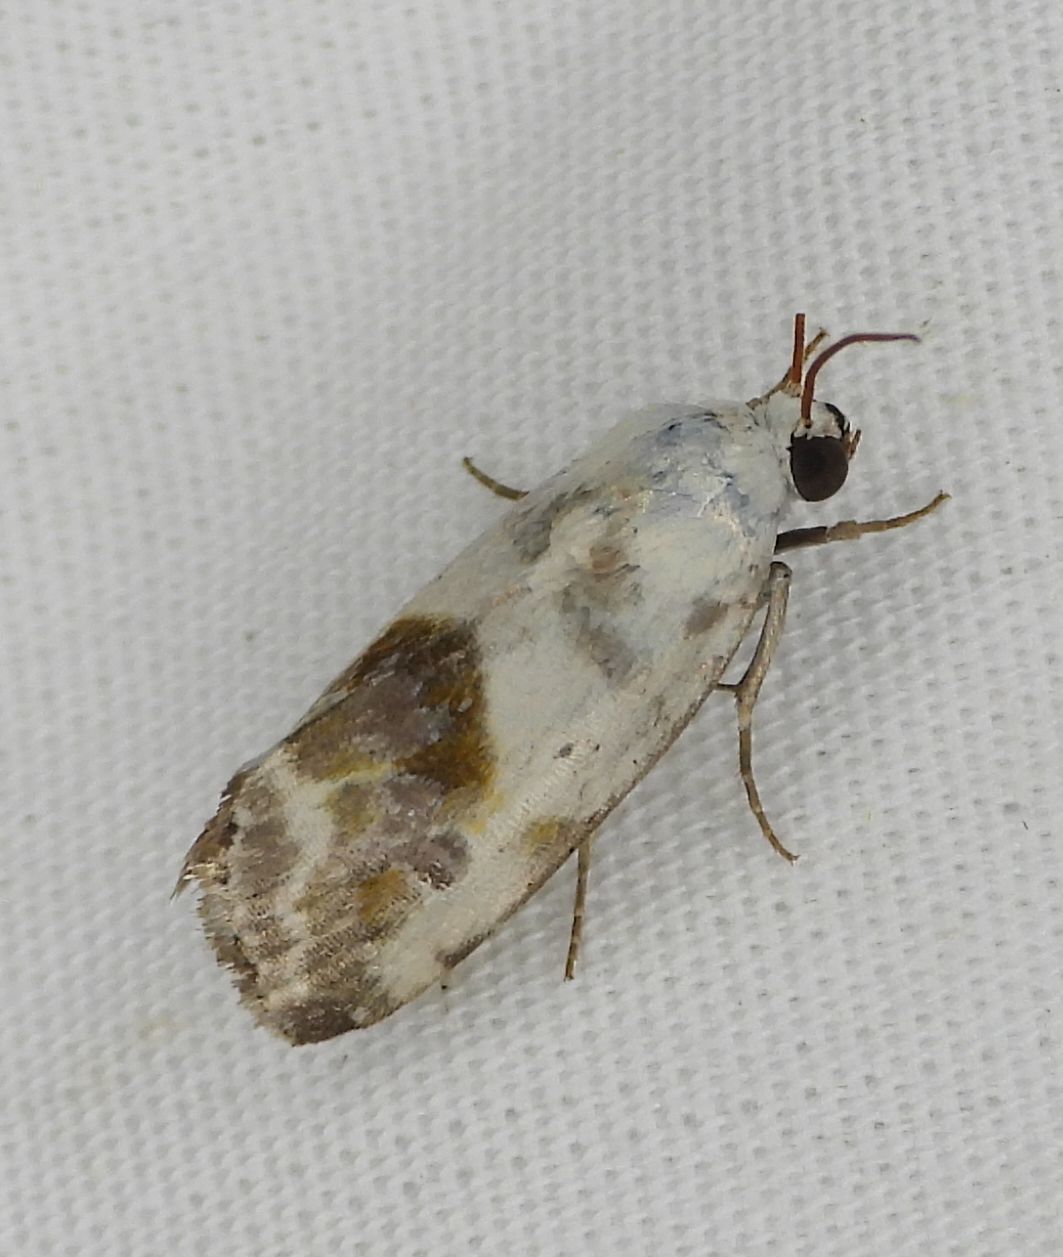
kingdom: Animalia
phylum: Arthropoda
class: Insecta
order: Lepidoptera
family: Noctuidae
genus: Acontia
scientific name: Acontia candefacta
